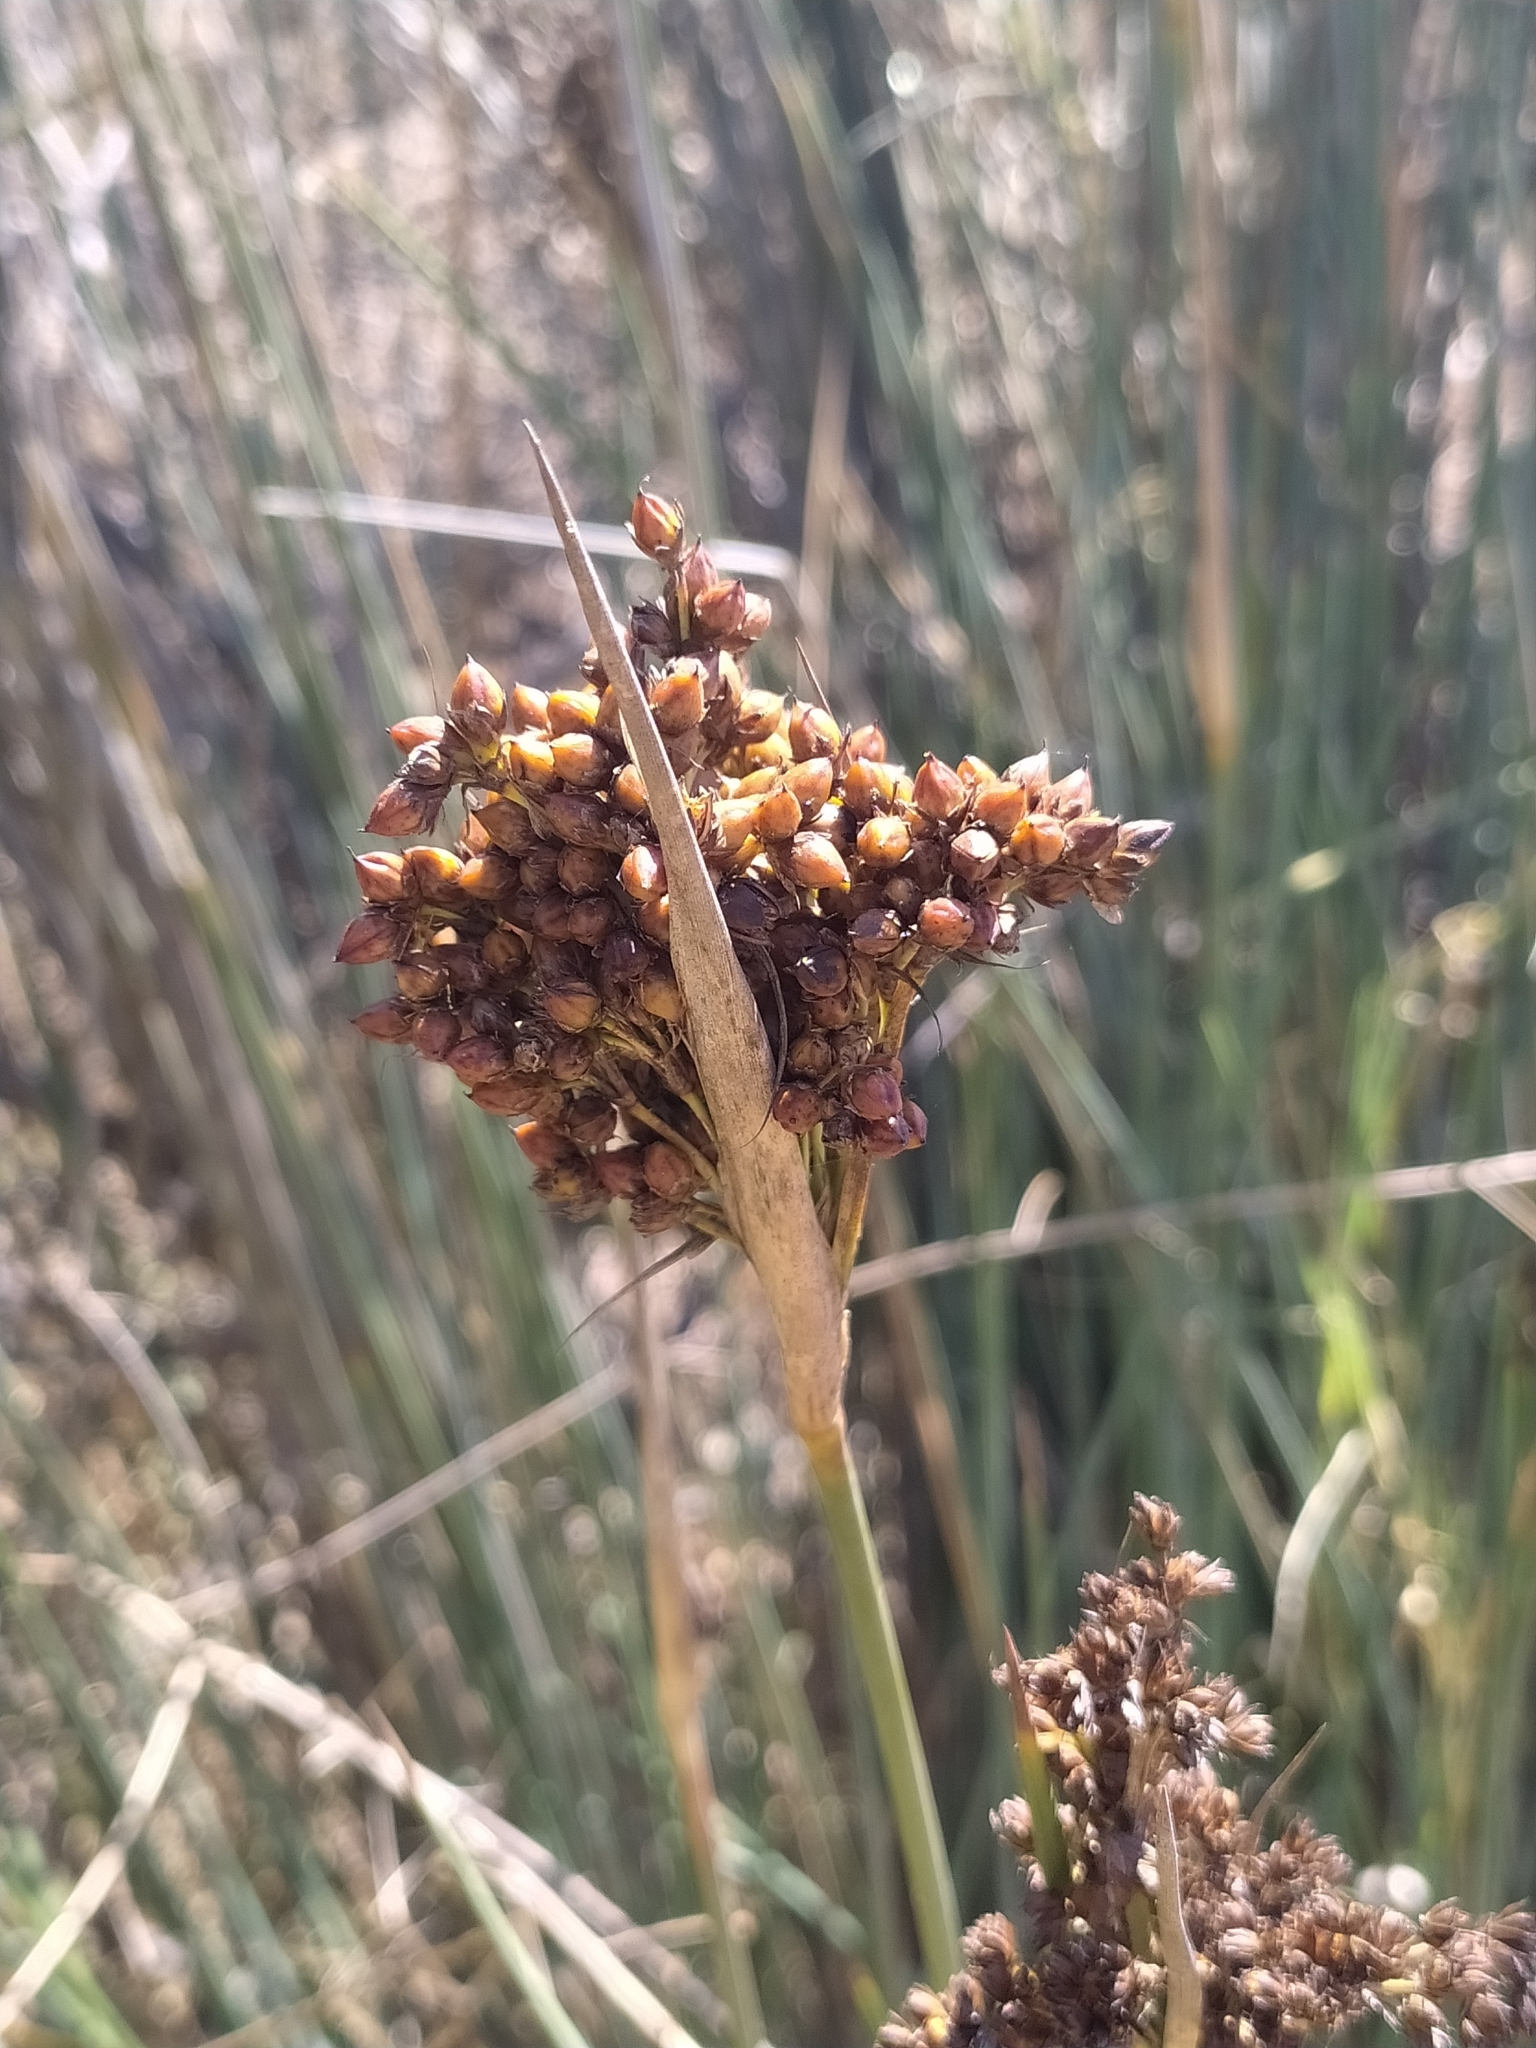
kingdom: Plantae
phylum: Tracheophyta
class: Liliopsida
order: Poales
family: Juncaceae
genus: Juncus
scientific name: Juncus acutus
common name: Sharp rush
